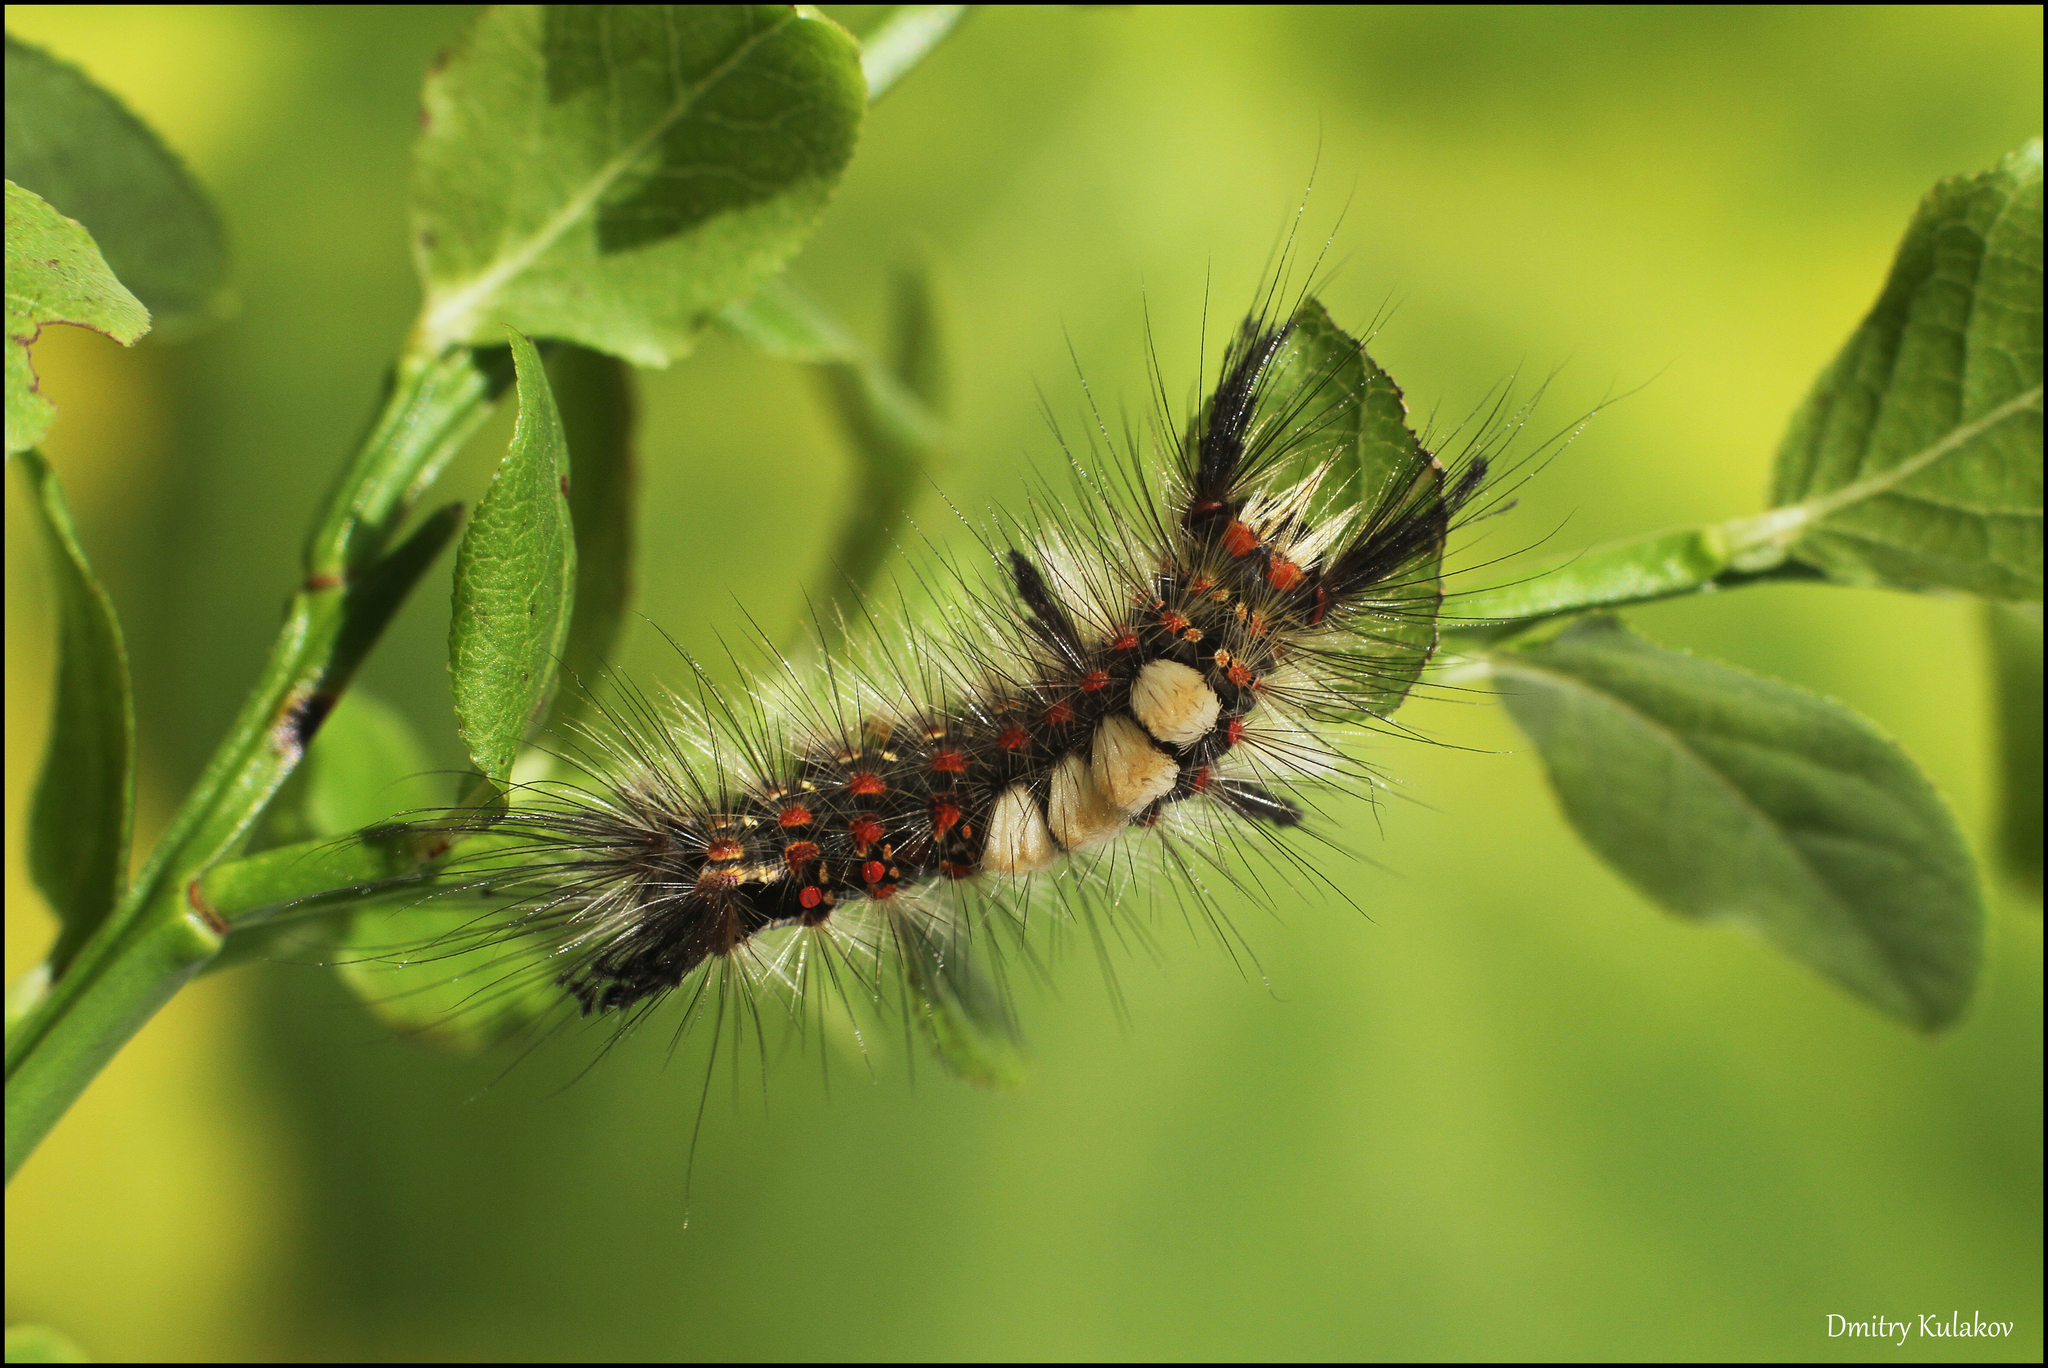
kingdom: Animalia
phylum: Arthropoda
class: Insecta
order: Lepidoptera
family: Erebidae
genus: Orgyia
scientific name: Orgyia antiqua
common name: Vapourer
